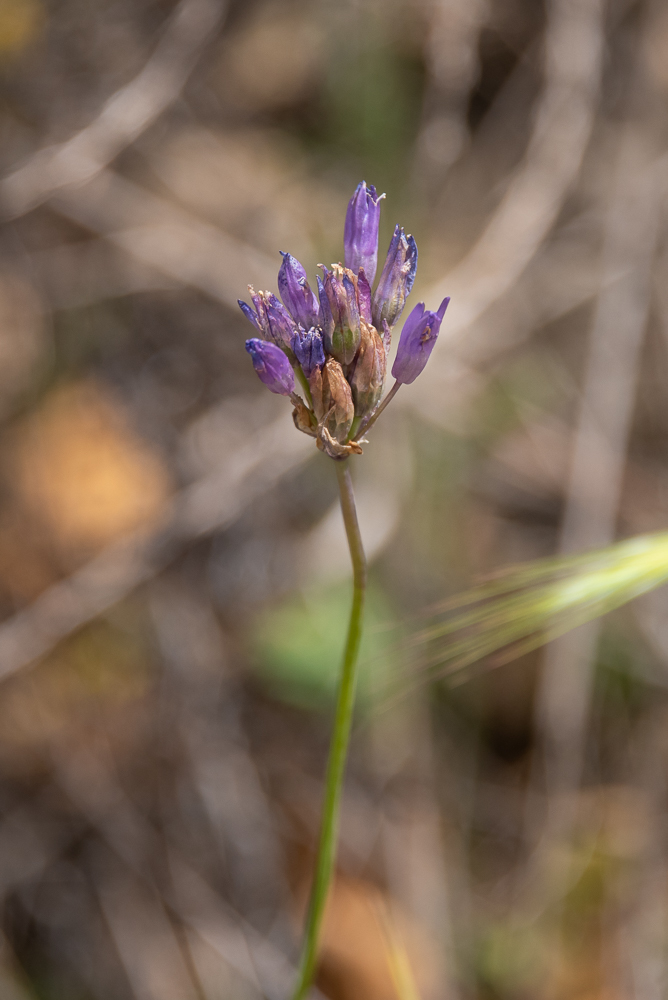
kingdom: Plantae
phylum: Tracheophyta
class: Liliopsida
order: Asparagales
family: Asparagaceae
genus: Dipterostemon
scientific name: Dipterostemon capitatus
